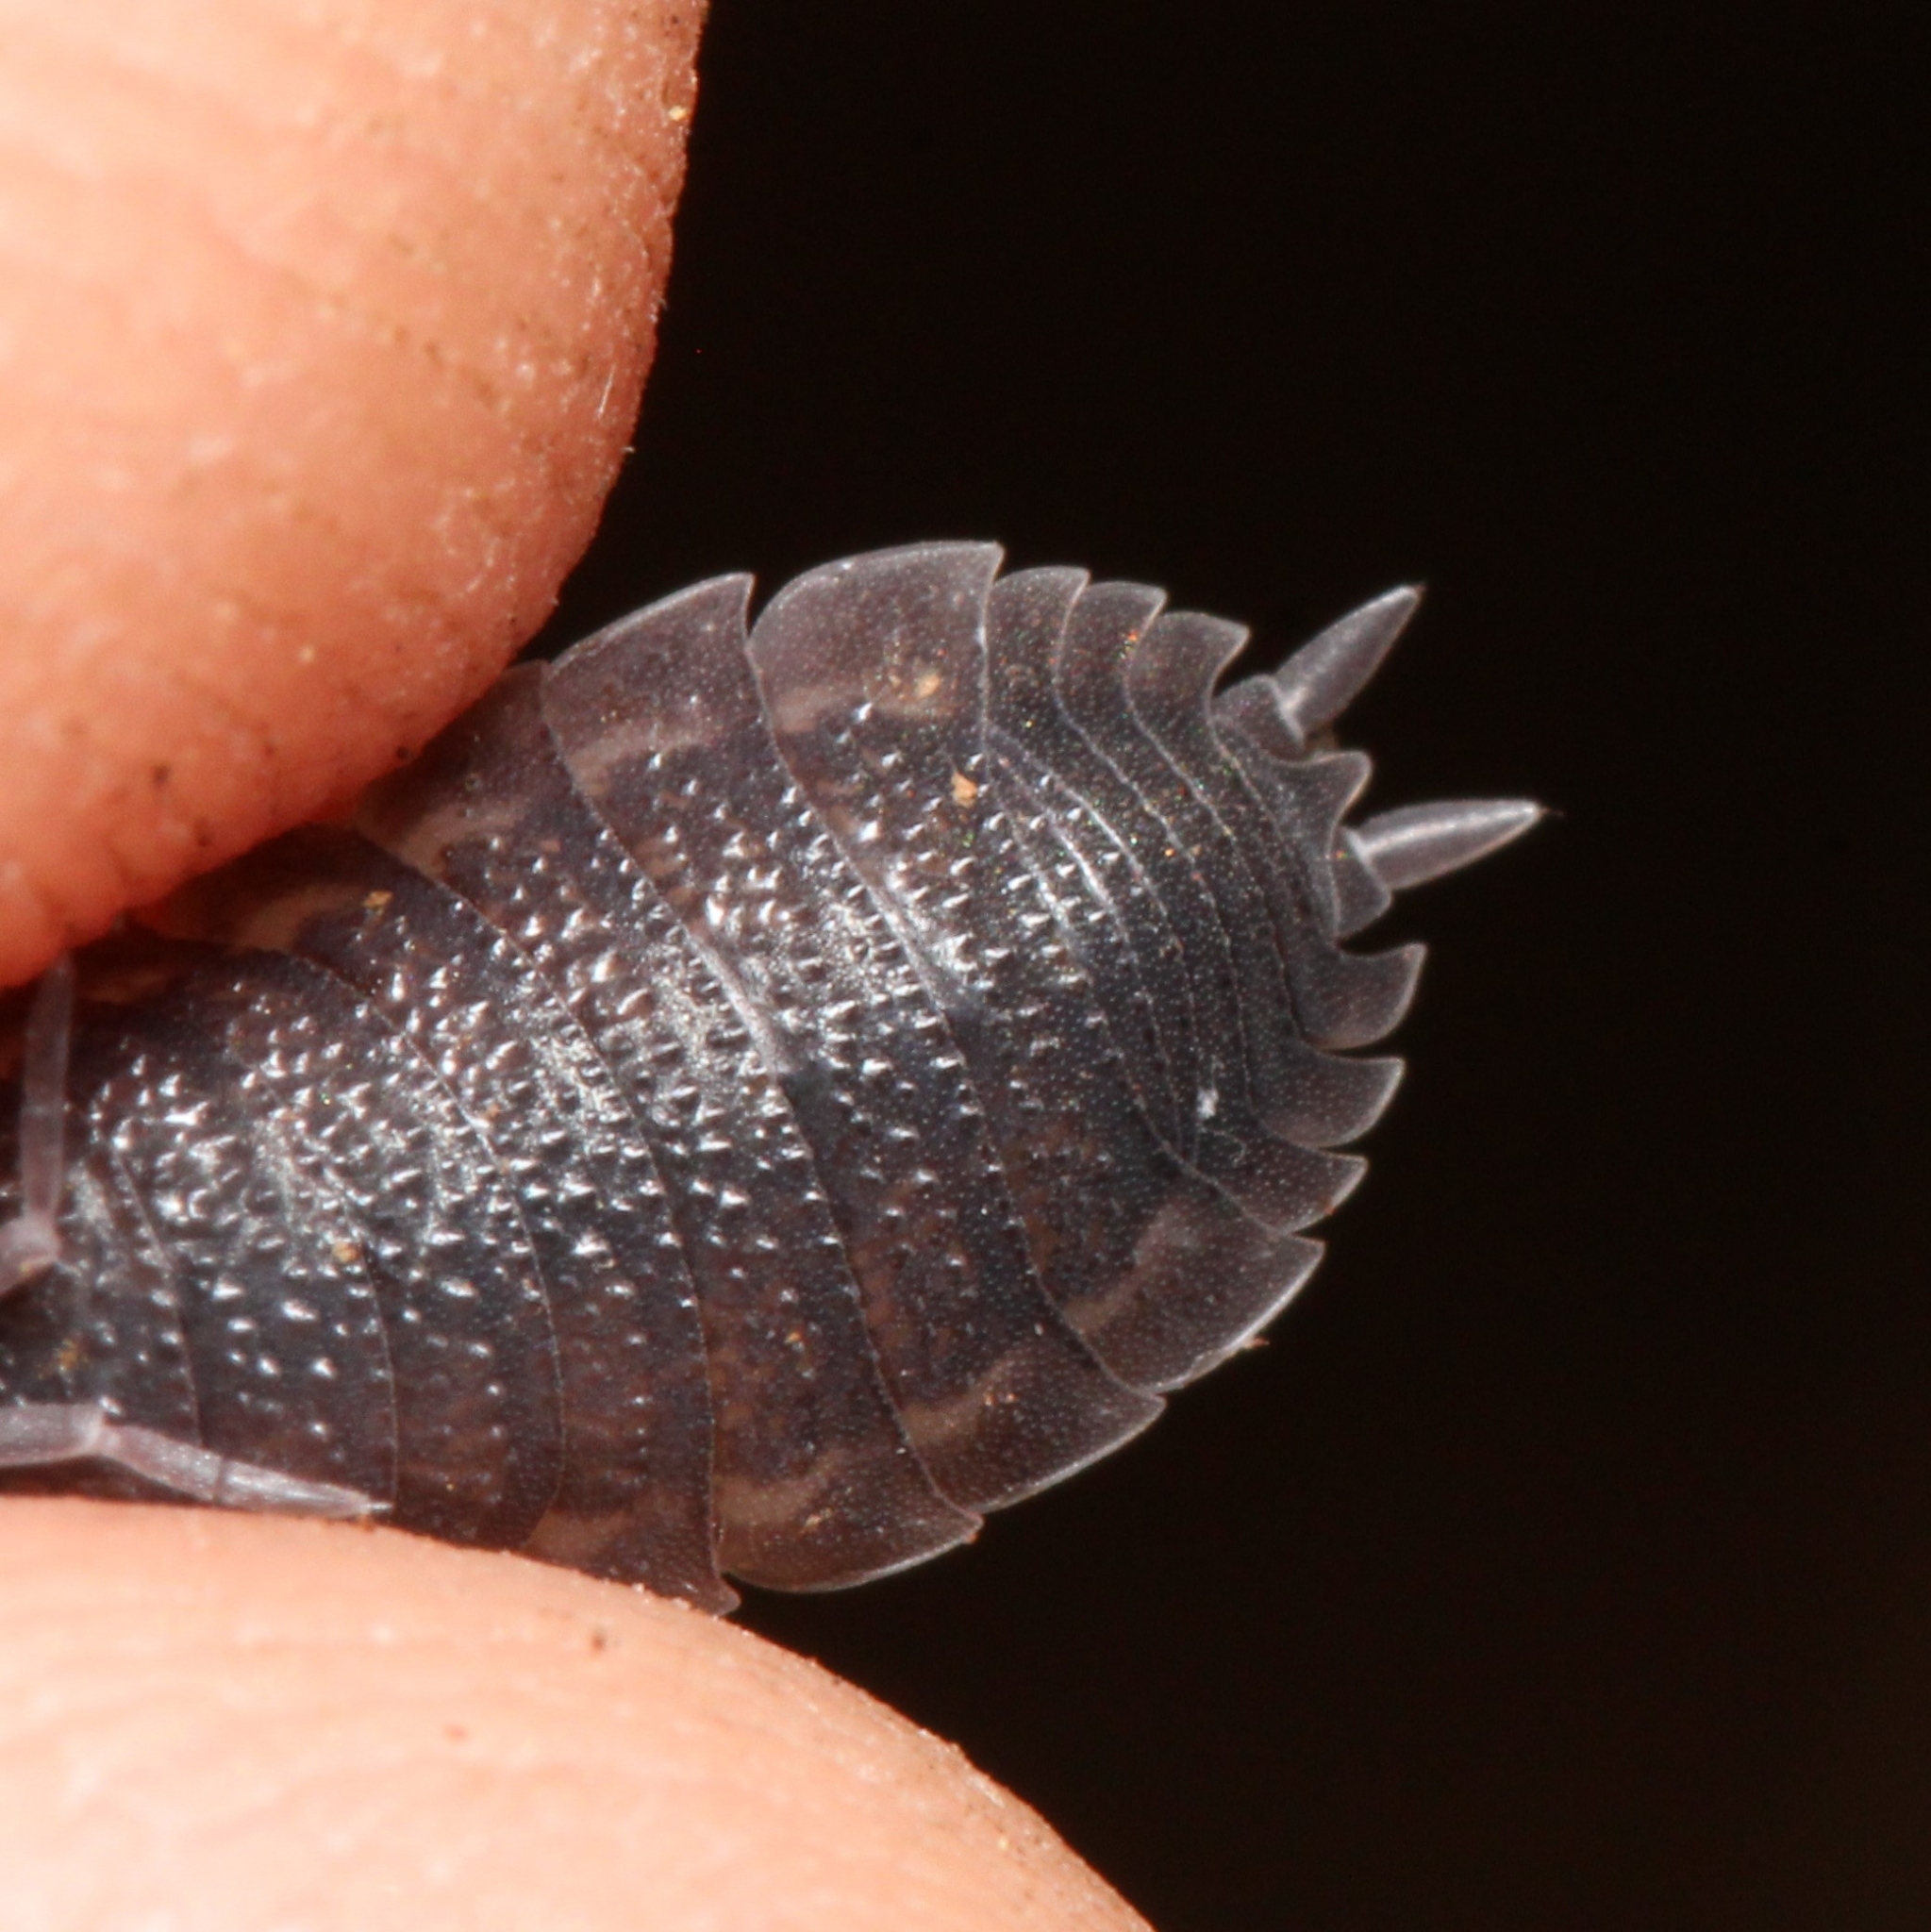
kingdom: Animalia
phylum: Arthropoda
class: Malacostraca
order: Isopoda
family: Porcellionidae
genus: Porcellio
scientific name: Porcellio scaber
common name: Common rough woodlouse
